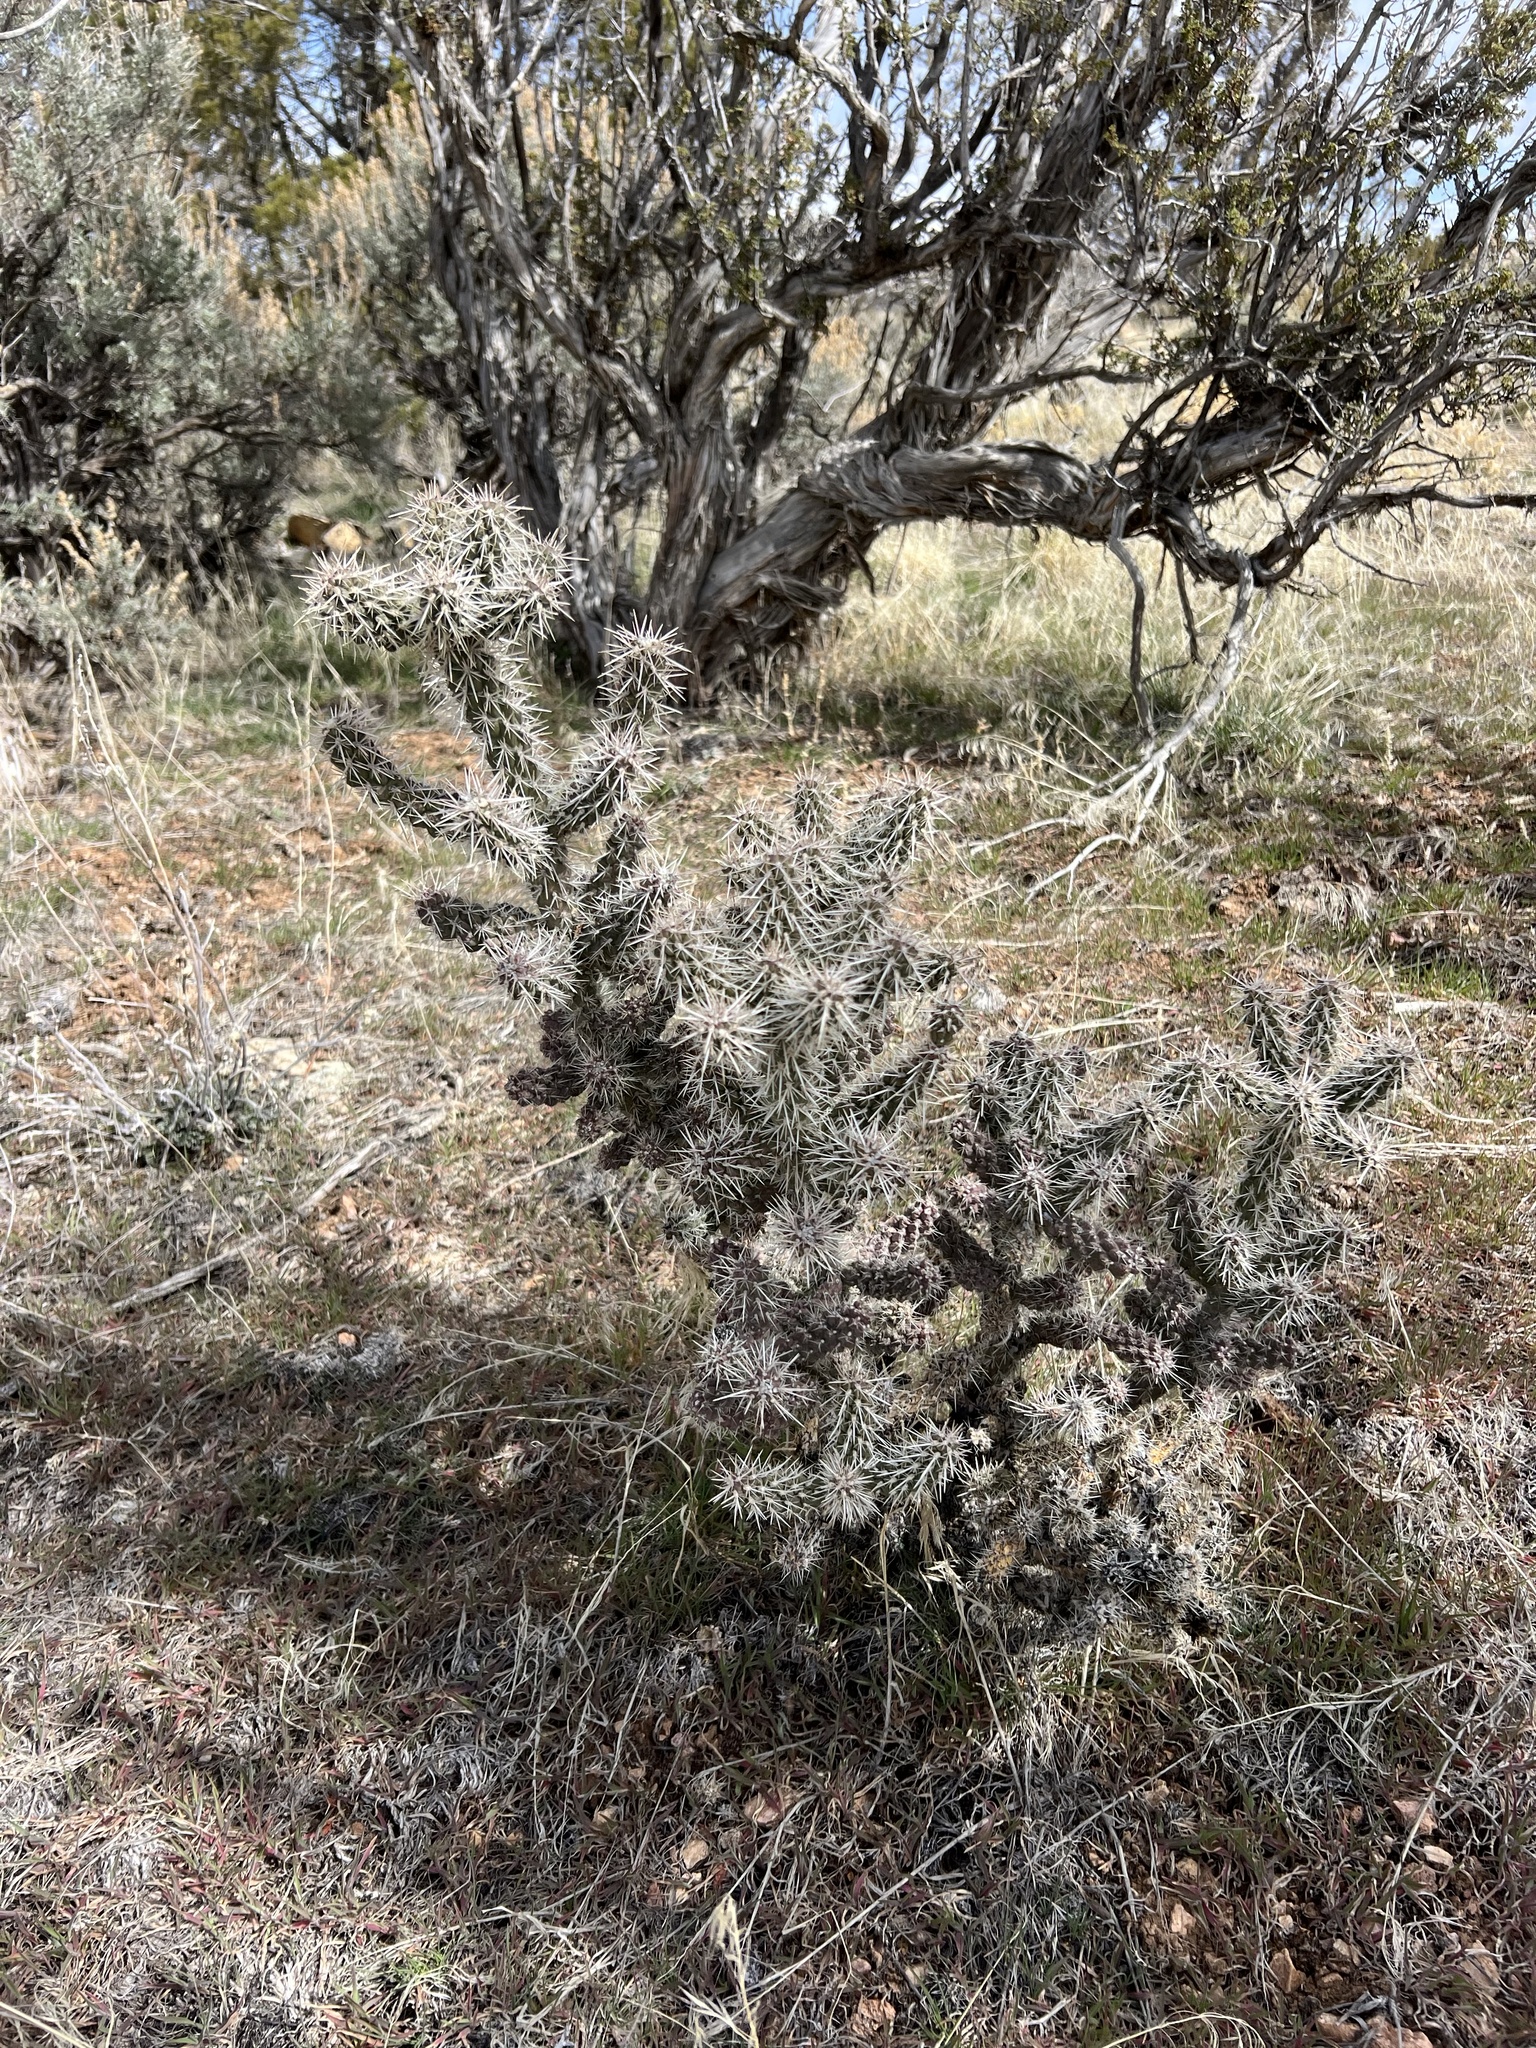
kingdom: Plantae
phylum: Tracheophyta
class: Magnoliopsida
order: Caryophyllales
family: Cactaceae
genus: Cylindropuntia
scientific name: Cylindropuntia whipplei
